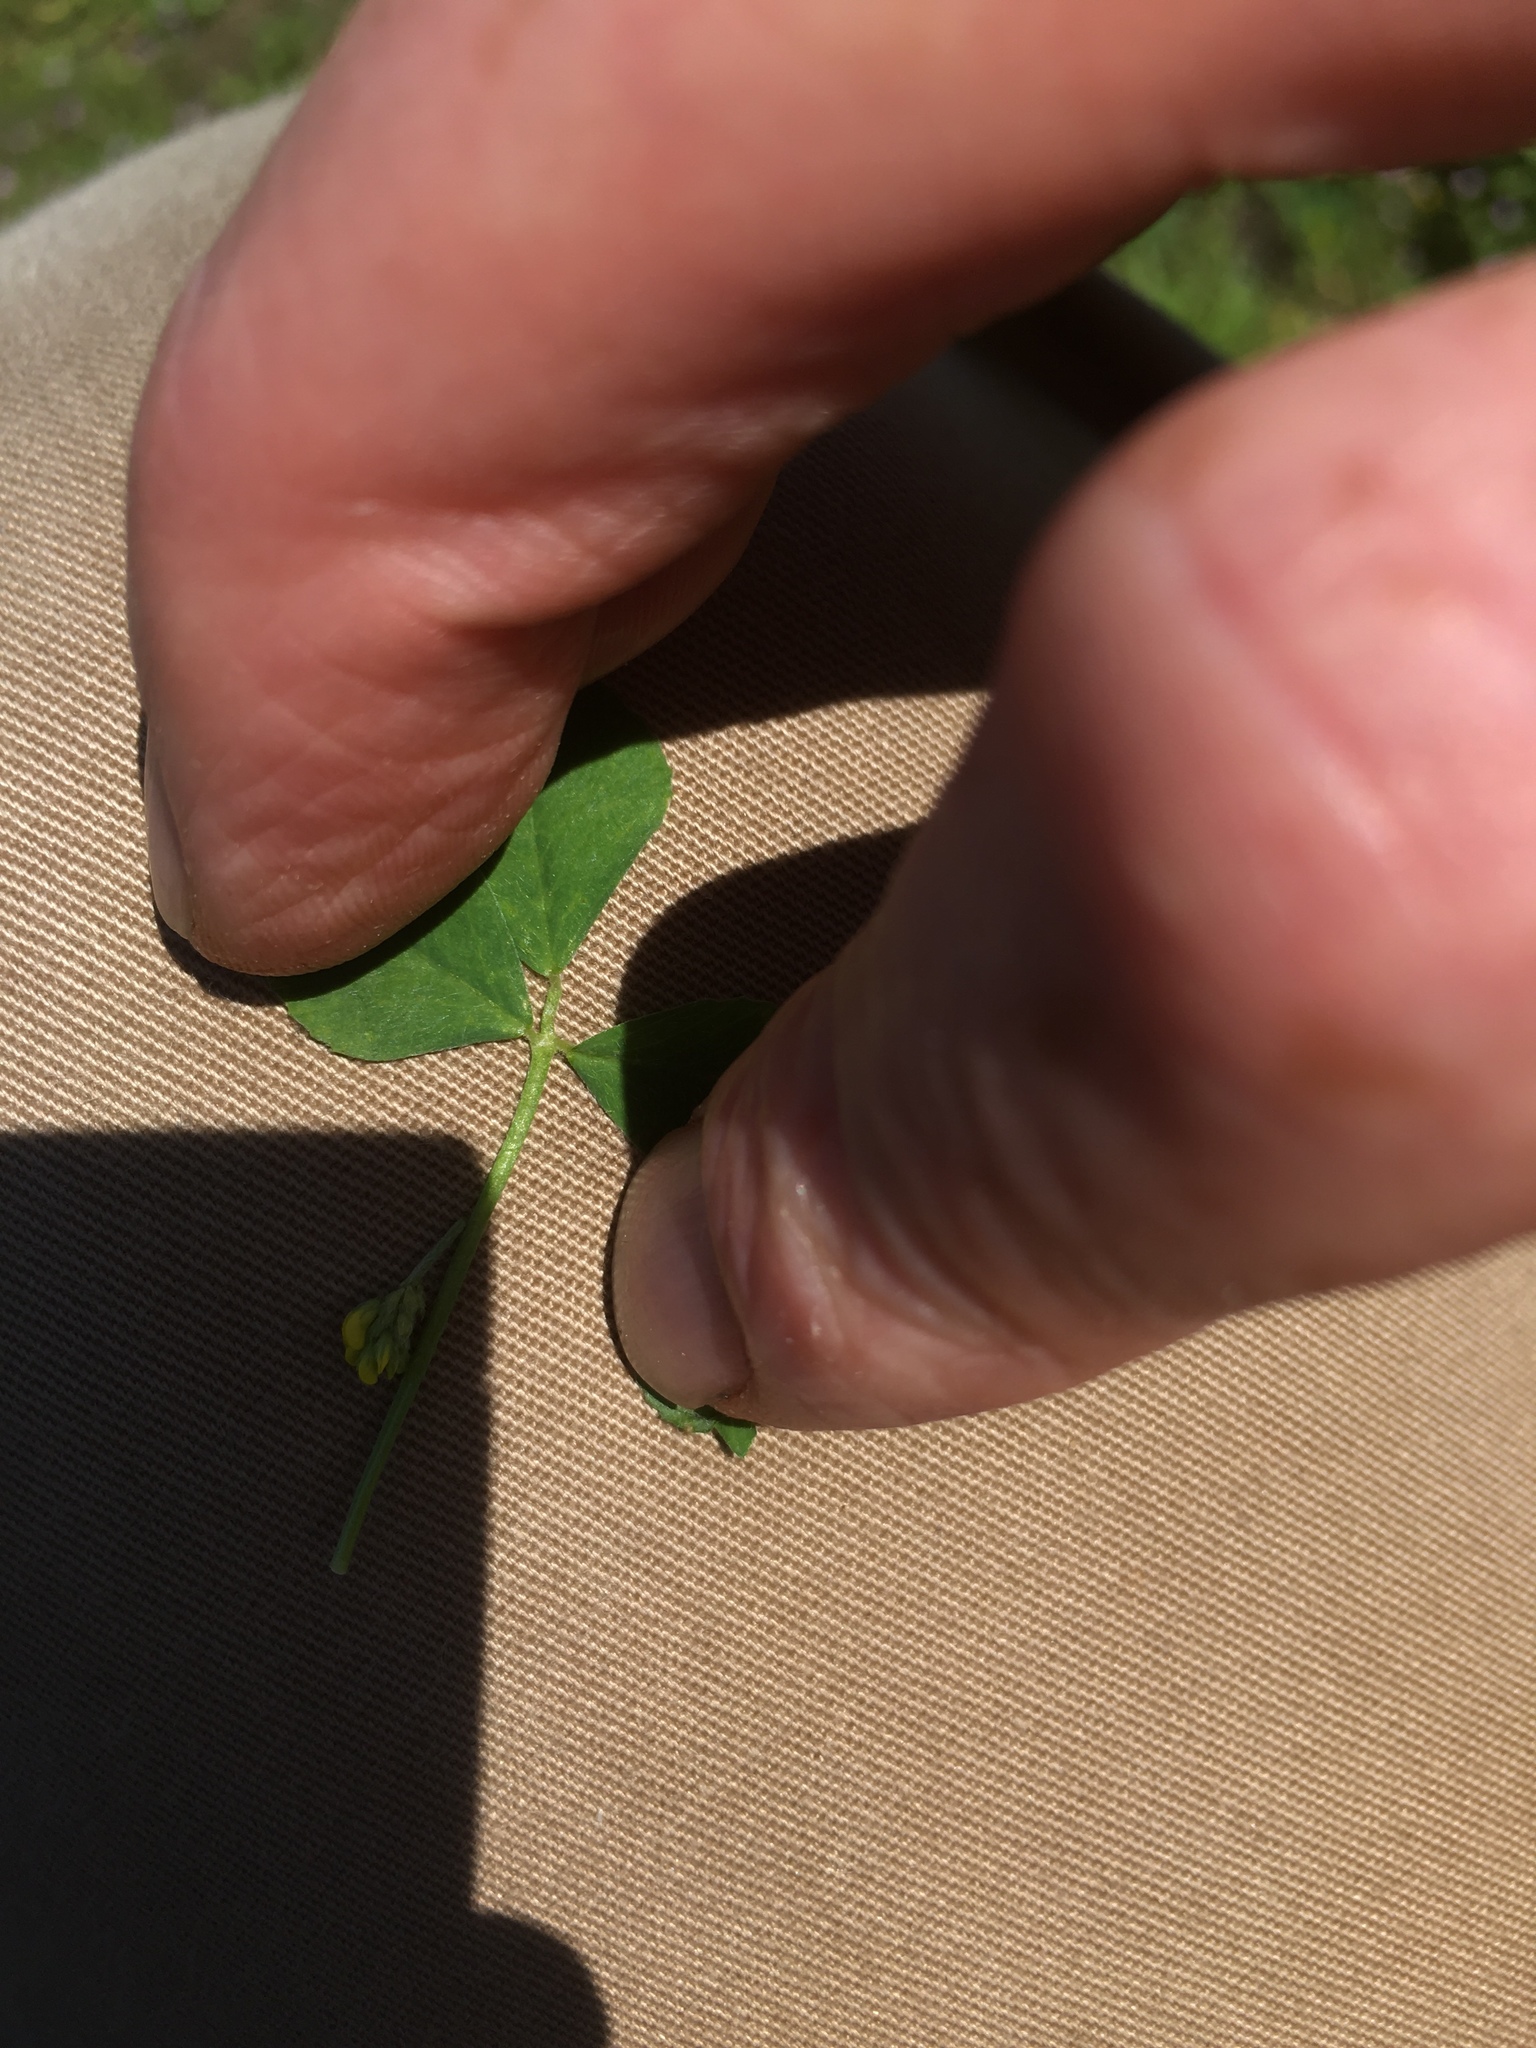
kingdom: Plantae
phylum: Tracheophyta
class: Magnoliopsida
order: Fabales
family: Fabaceae
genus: Medicago
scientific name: Medicago lupulina
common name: Black medick
